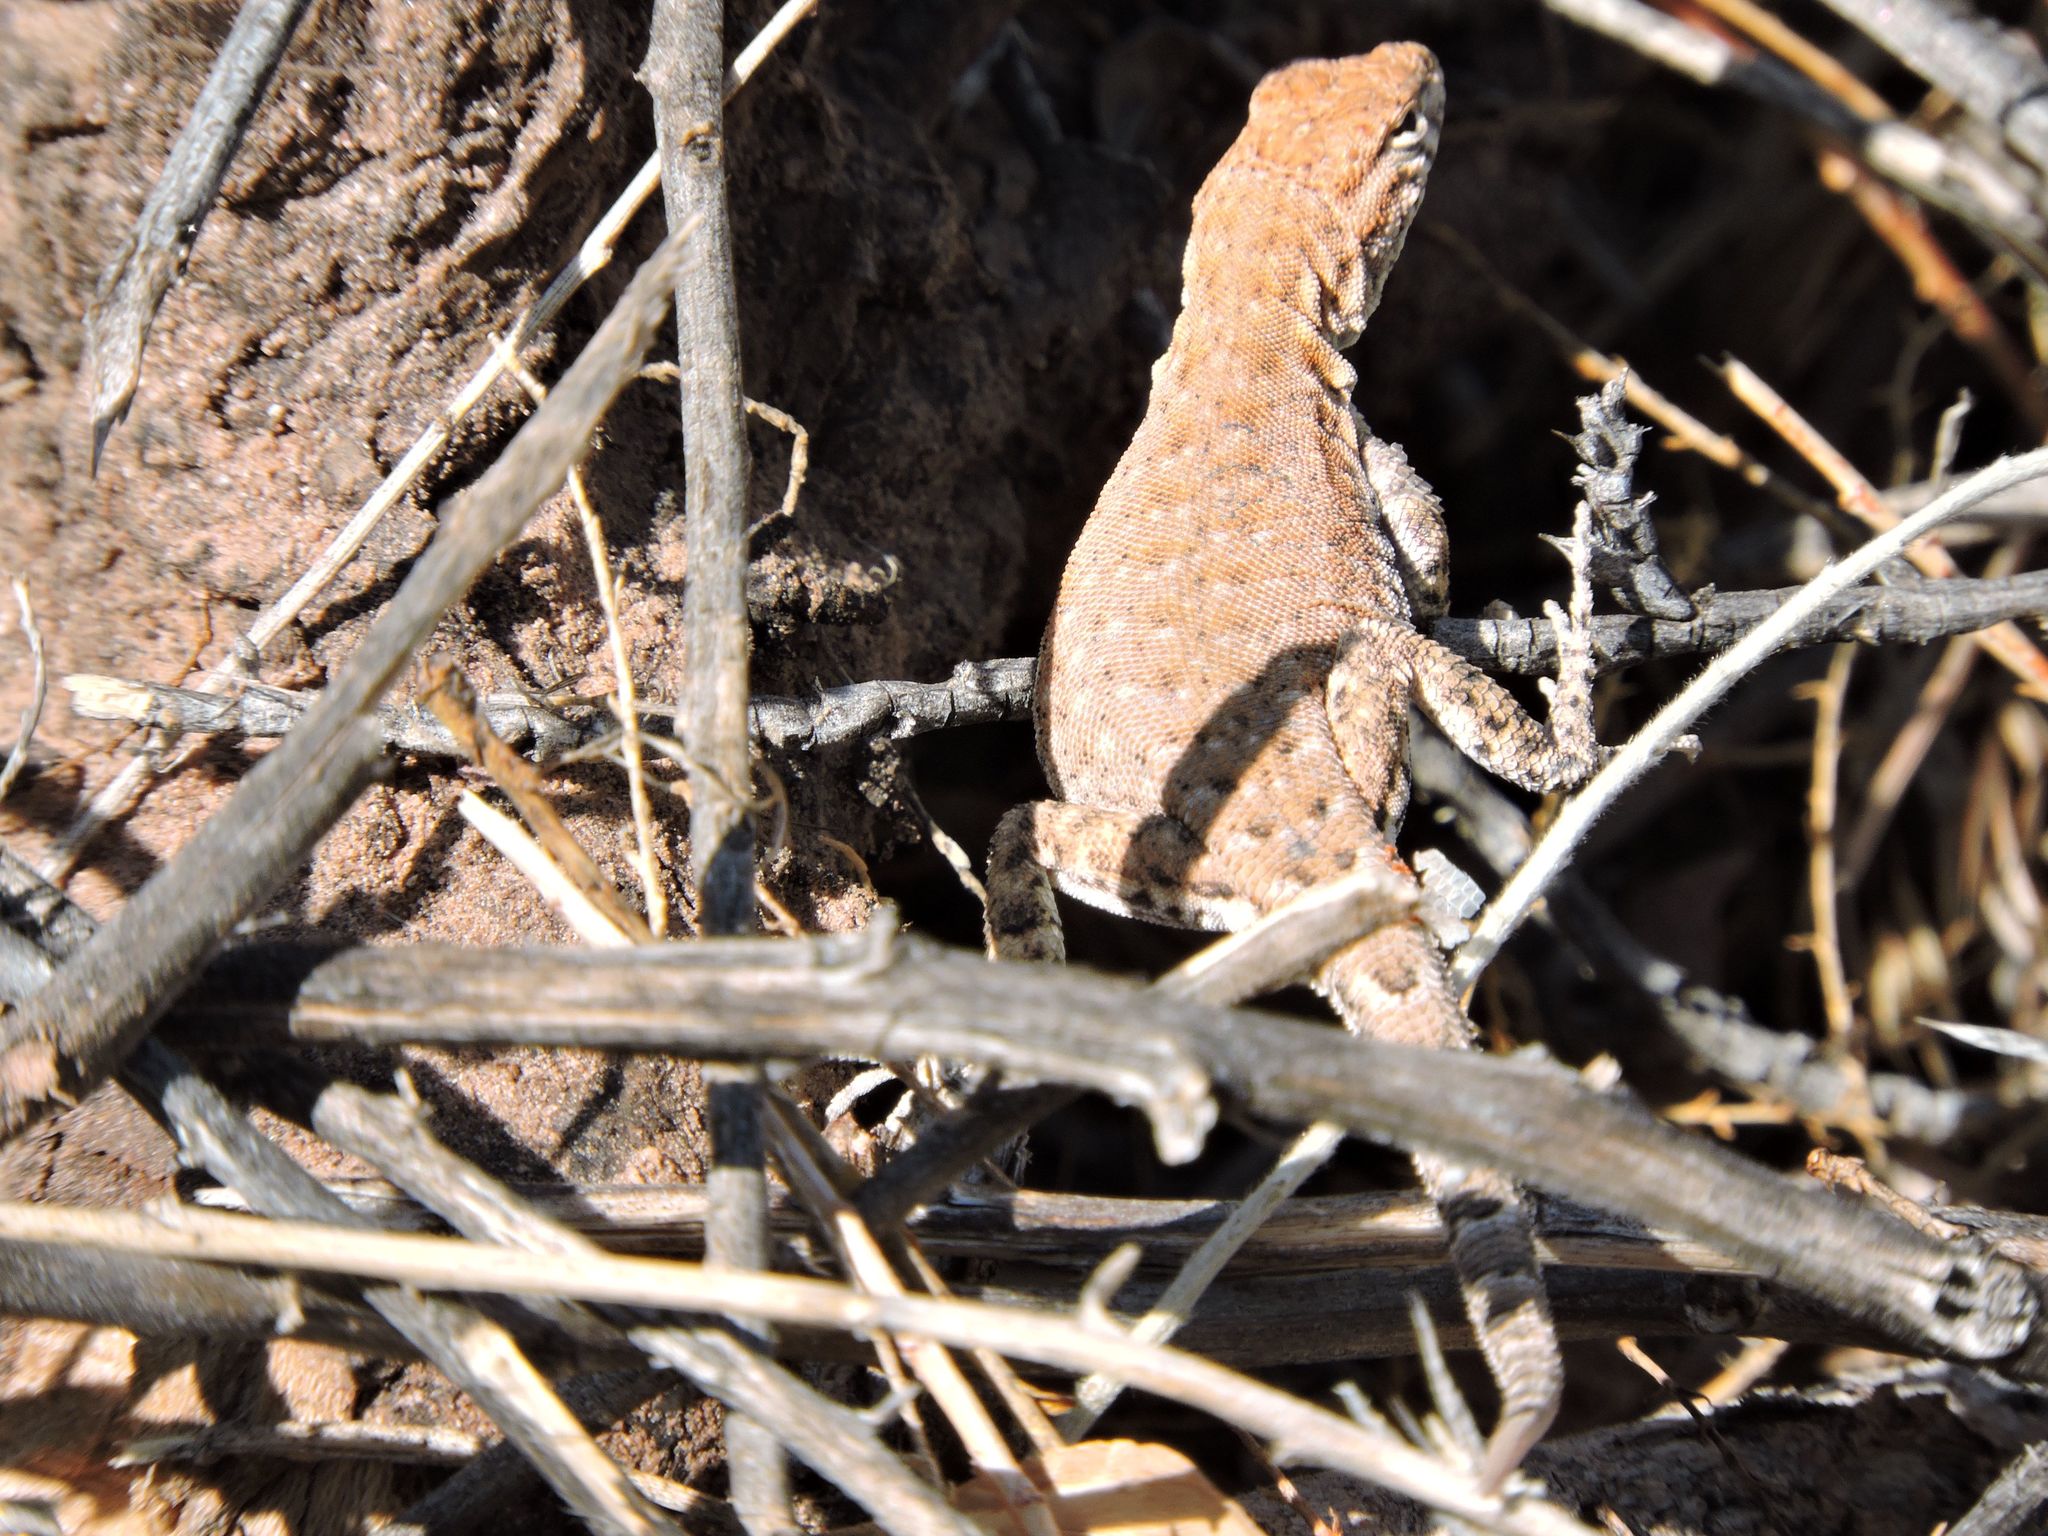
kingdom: Animalia
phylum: Chordata
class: Squamata
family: Phrynosomatidae
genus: Uta
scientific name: Uta stansburiana
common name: Side-blotched lizard
